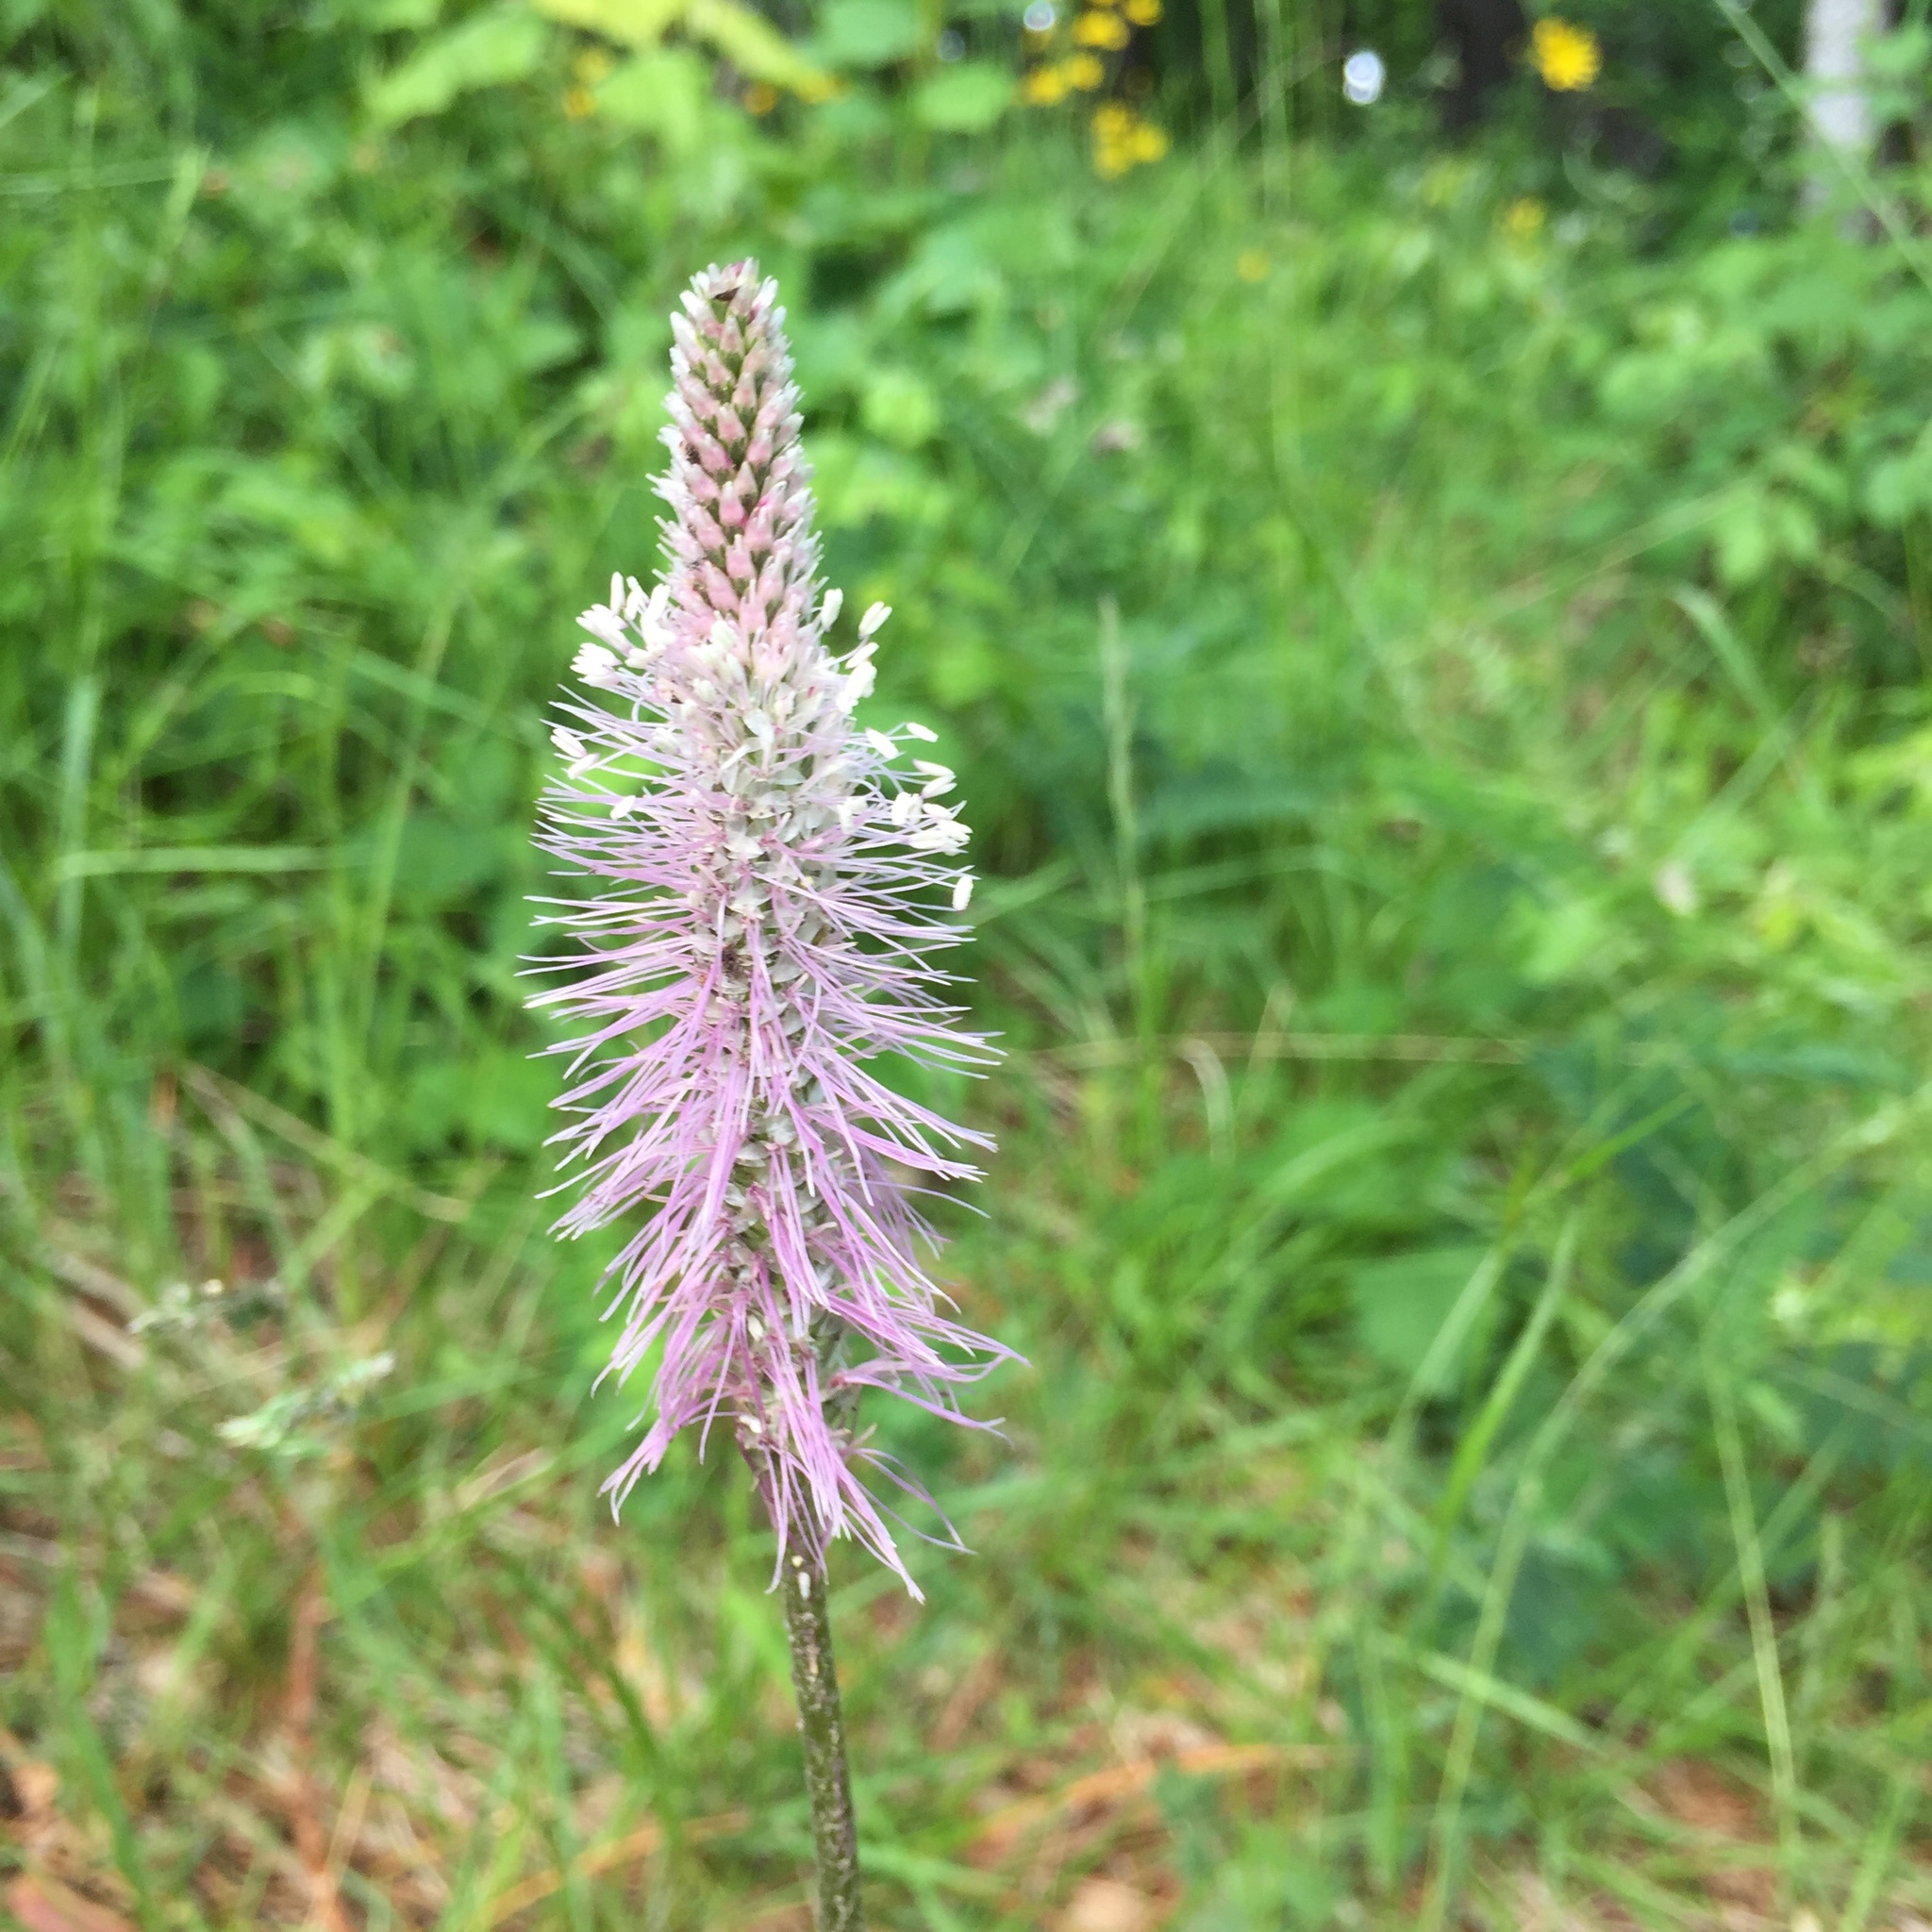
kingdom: Plantae
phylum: Tracheophyta
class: Magnoliopsida
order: Lamiales
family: Plantaginaceae
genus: Plantago
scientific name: Plantago media
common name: Hoary plantain
